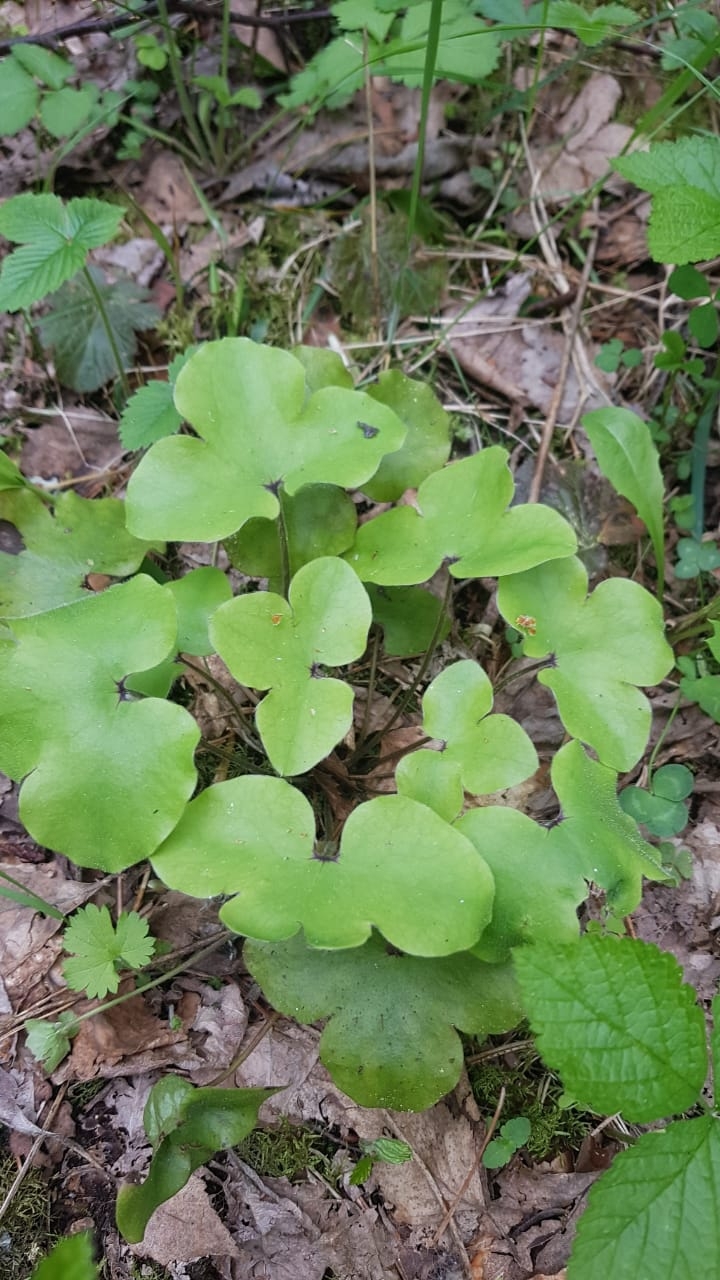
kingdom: Plantae
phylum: Tracheophyta
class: Magnoliopsida
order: Ranunculales
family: Ranunculaceae
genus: Hepatica
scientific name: Hepatica nobilis
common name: Liverleaf
